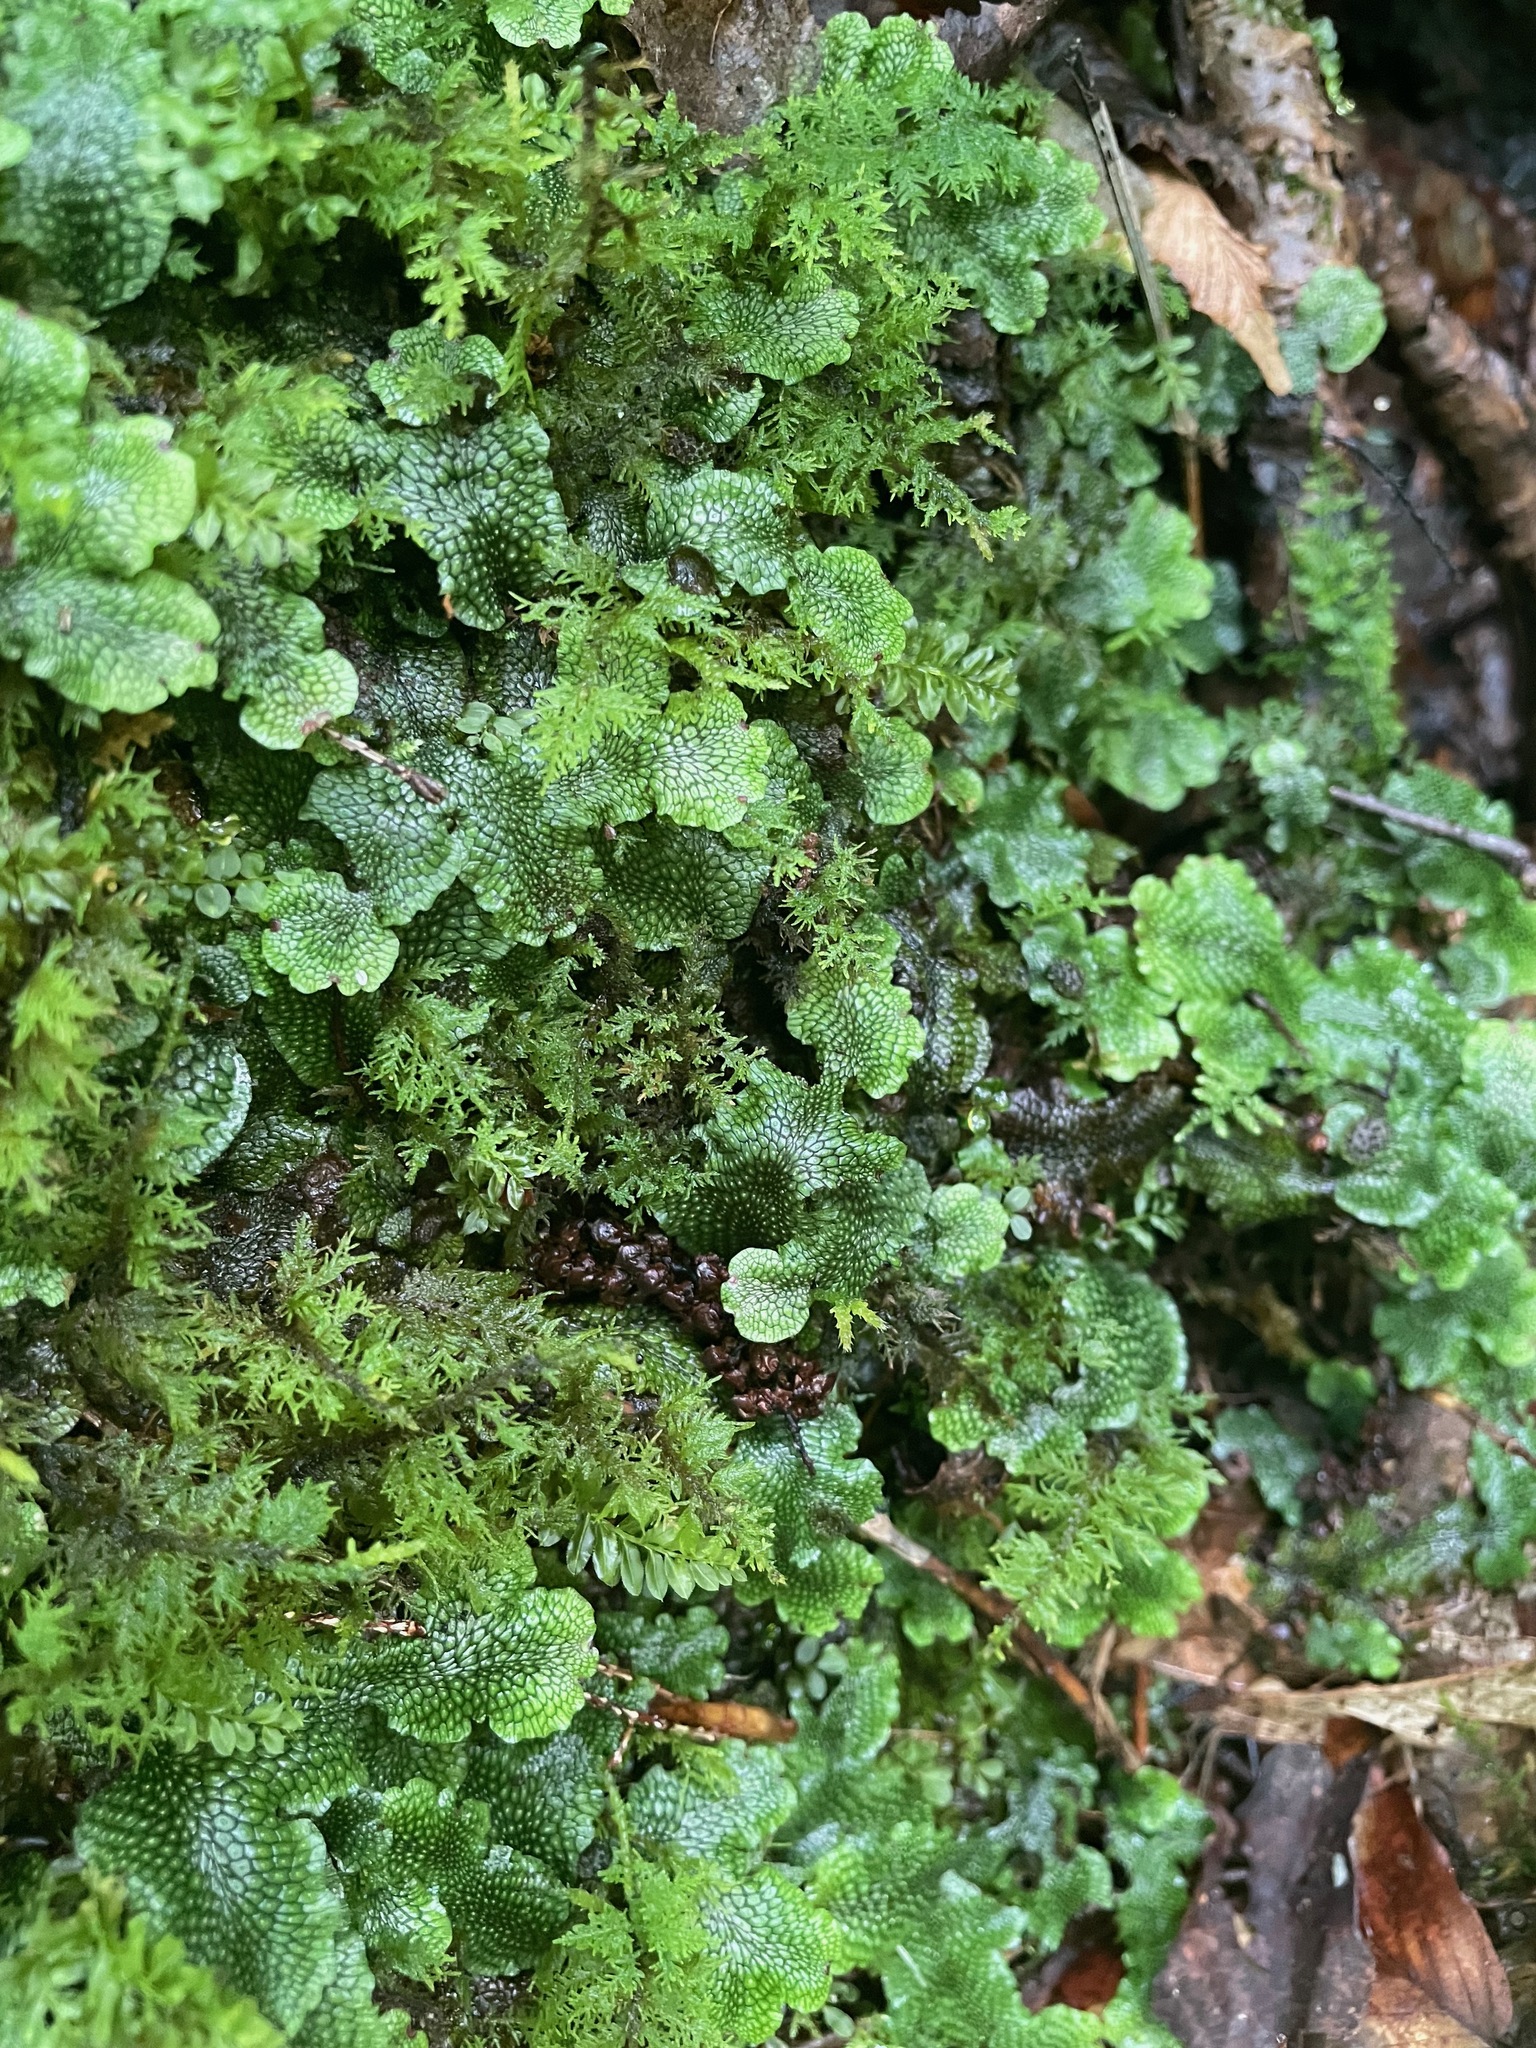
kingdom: Plantae
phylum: Marchantiophyta
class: Marchantiopsida
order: Marchantiales
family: Conocephalaceae
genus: Conocephalum
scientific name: Conocephalum salebrosum
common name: Cat-tongue liverwort
